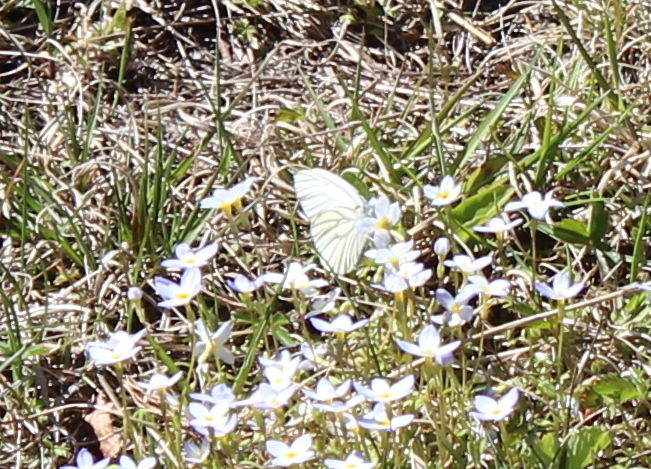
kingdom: Animalia
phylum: Arthropoda
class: Insecta
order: Lepidoptera
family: Pieridae
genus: Pieris
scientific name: Pieris oleracea
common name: Mustard white
